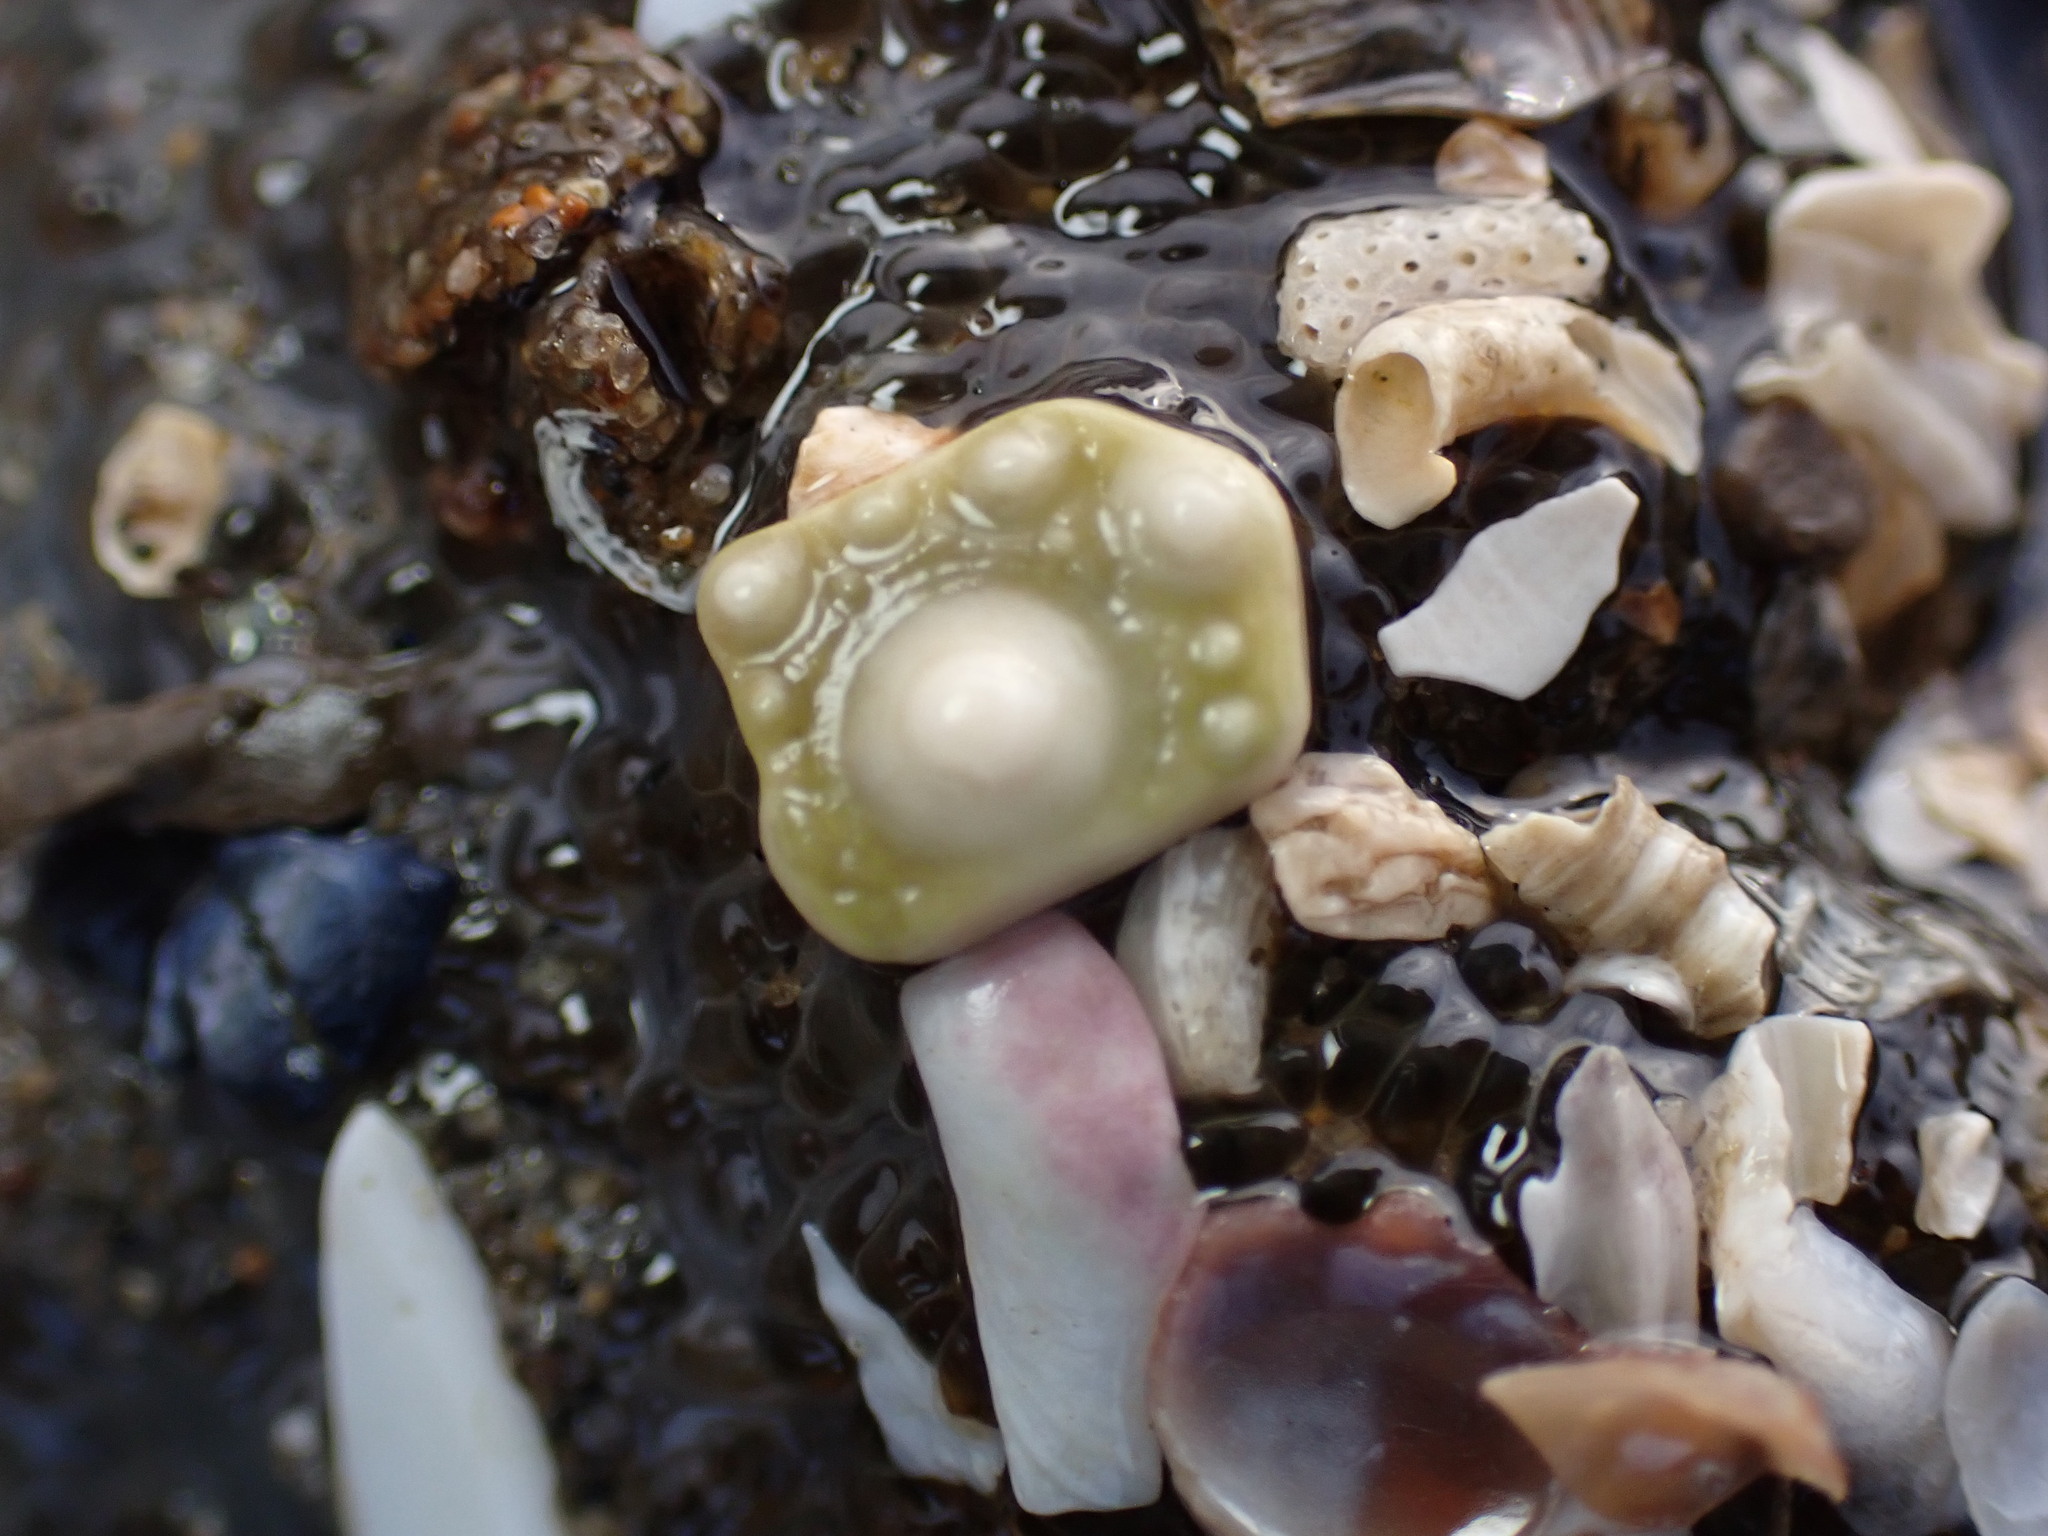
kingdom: Animalia
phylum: Echinodermata
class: Echinoidea
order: Camarodonta
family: Strongylocentrotidae
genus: Strongylocentrotus
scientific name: Strongylocentrotus purpuratus
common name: Purple sea urchin
